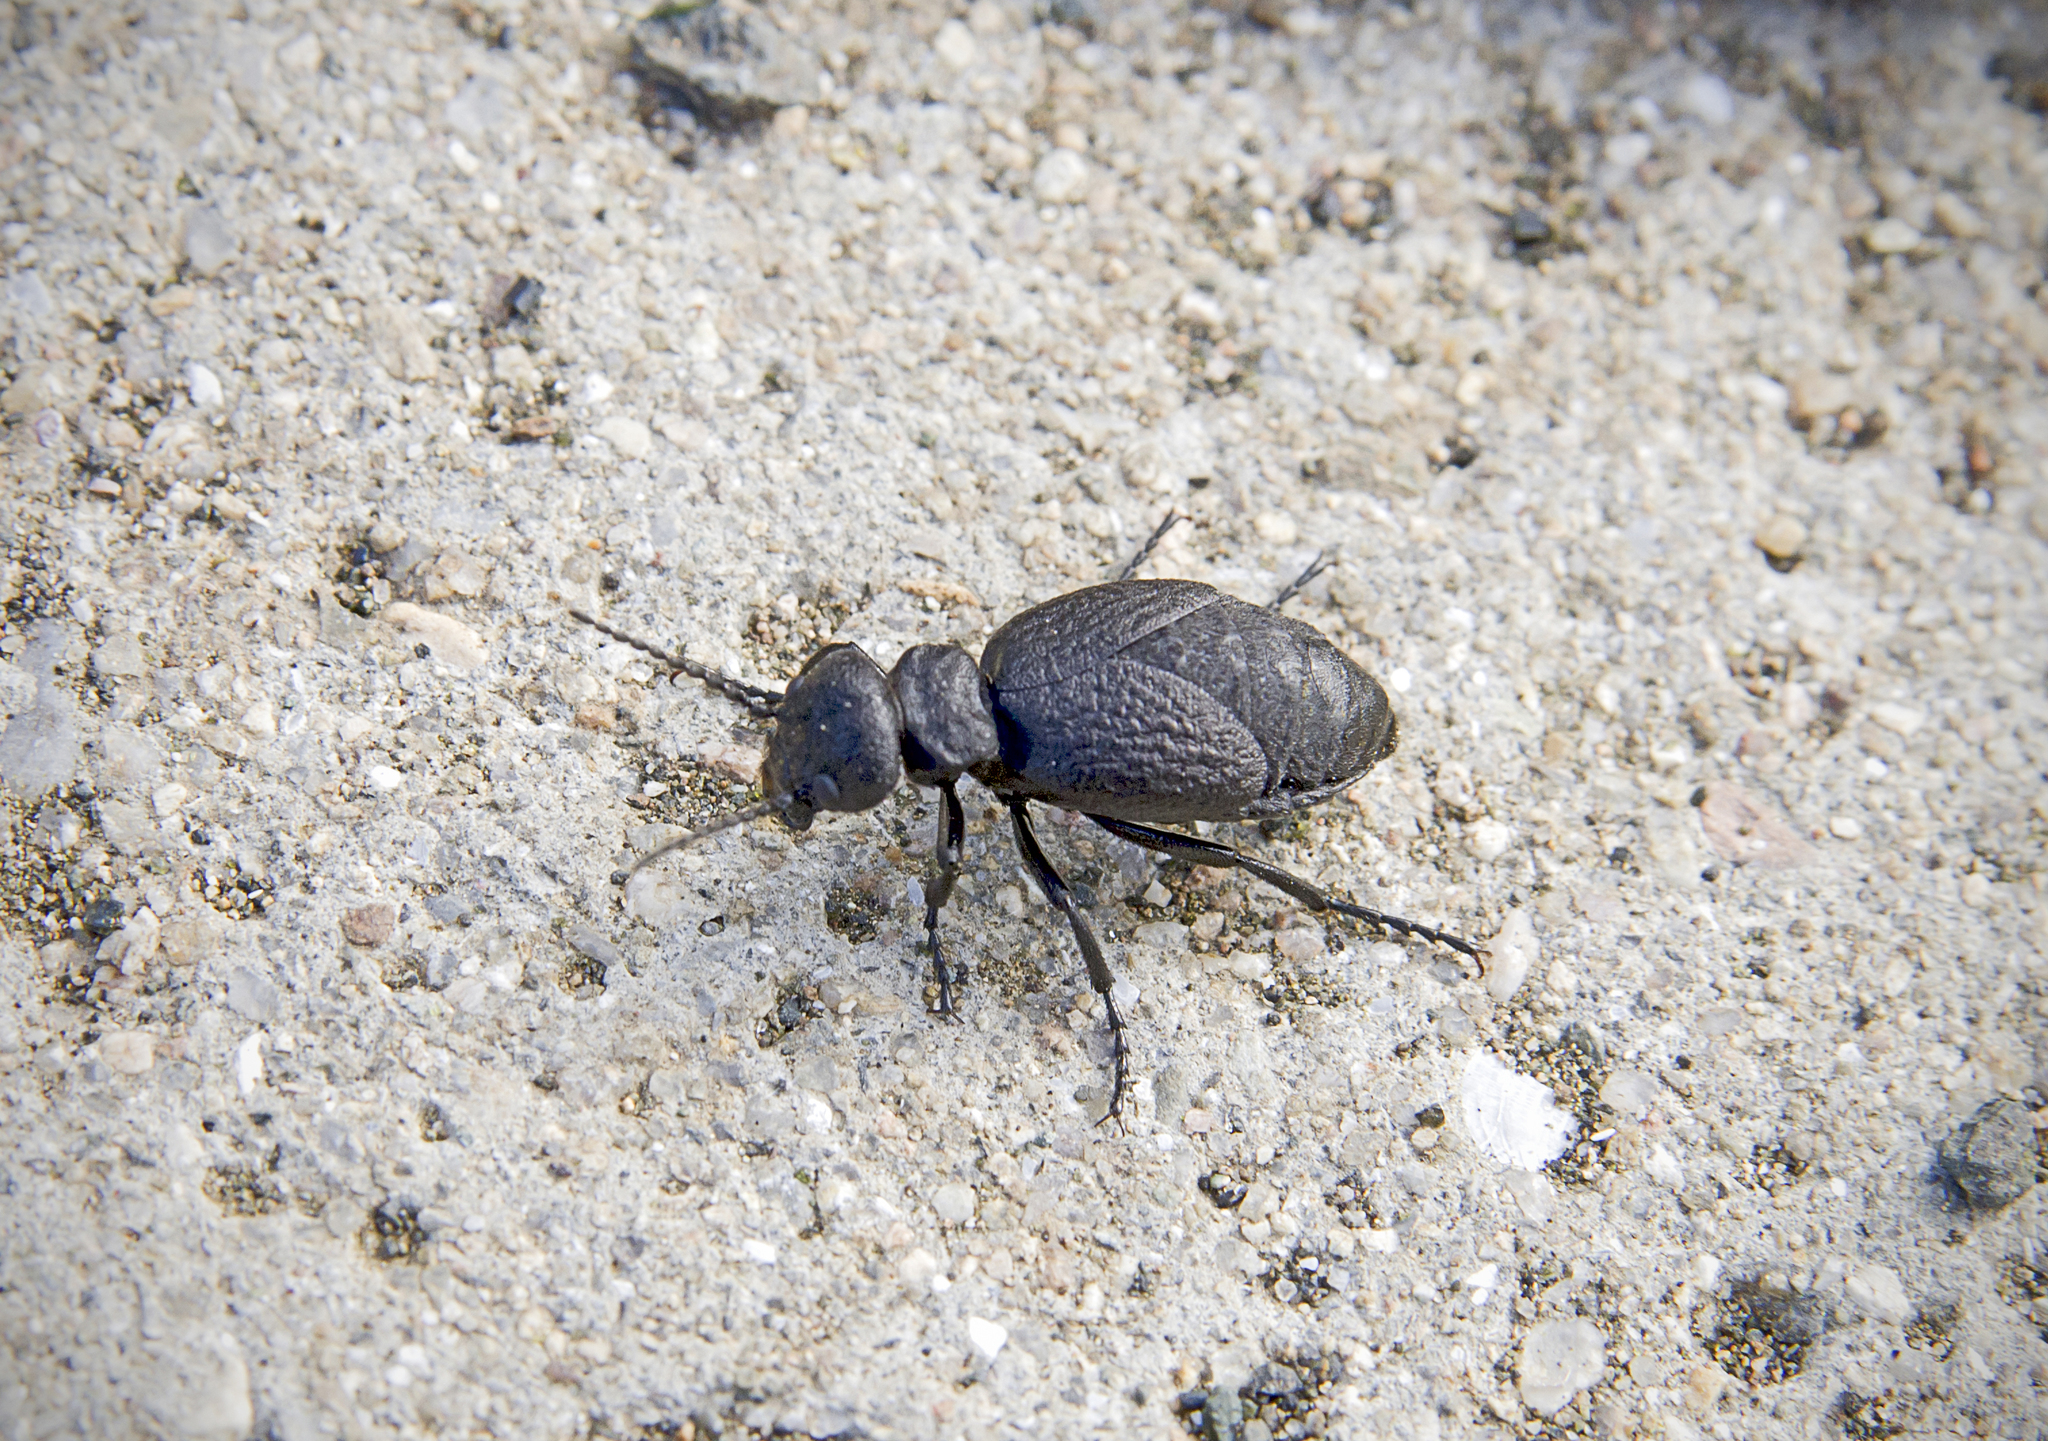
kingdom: Animalia
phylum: Arthropoda
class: Insecta
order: Coleoptera
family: Meloidae
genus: Meloe
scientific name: Meloe mediterraneus
